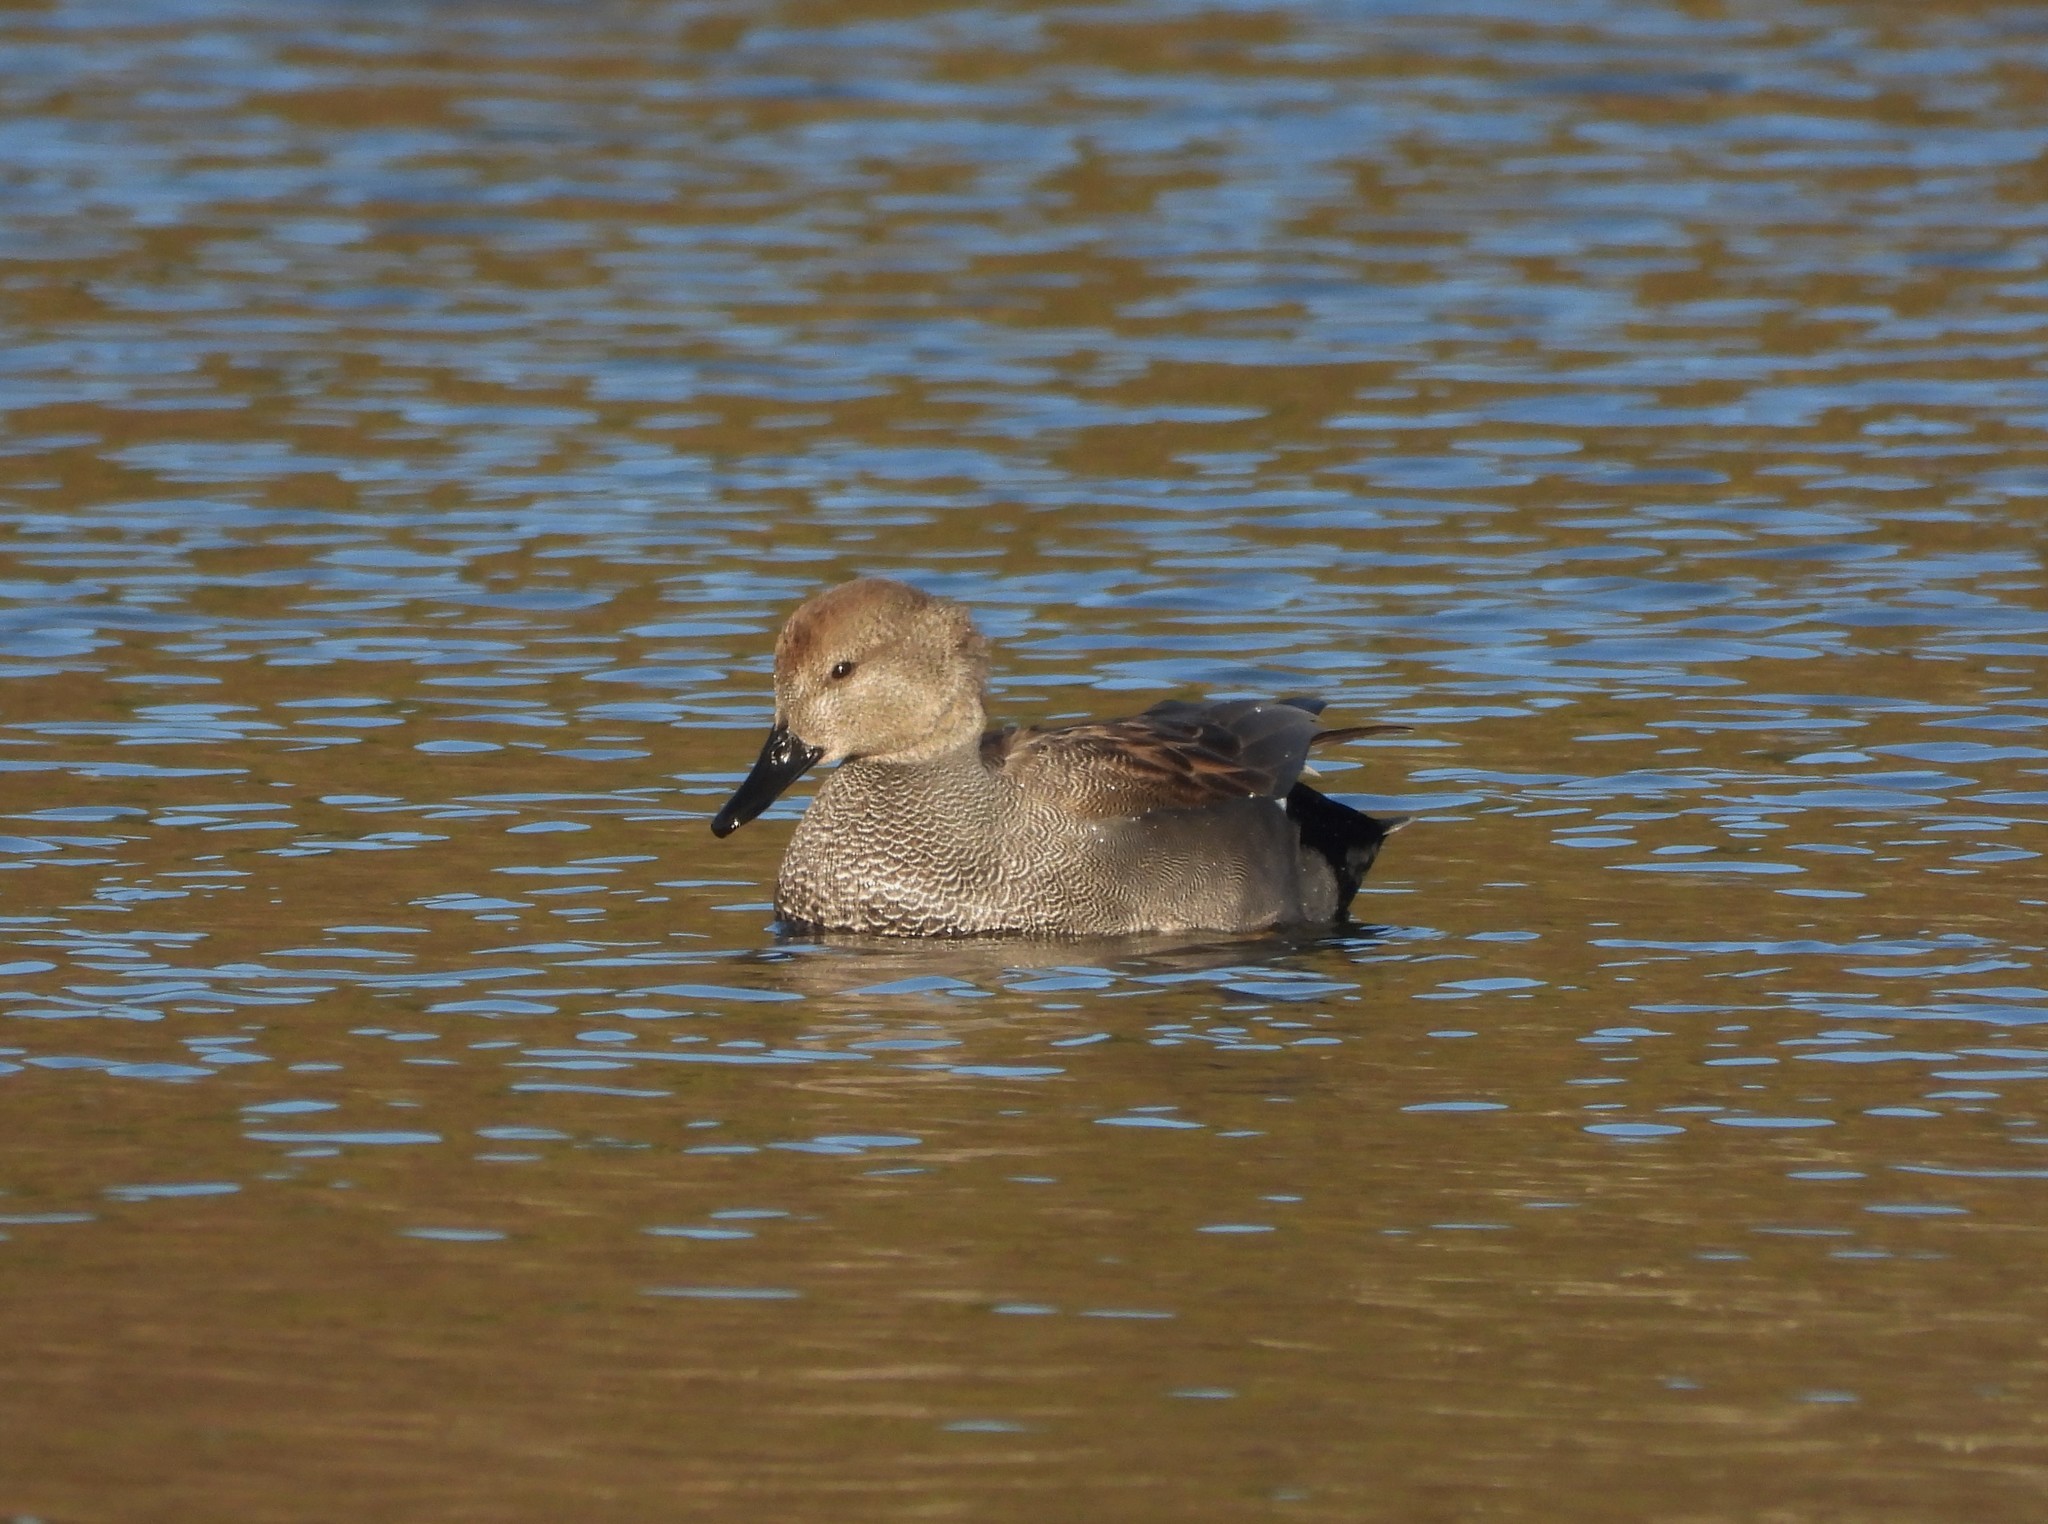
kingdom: Animalia
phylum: Chordata
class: Aves
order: Anseriformes
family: Anatidae
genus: Mareca
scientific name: Mareca strepera
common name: Gadwall
